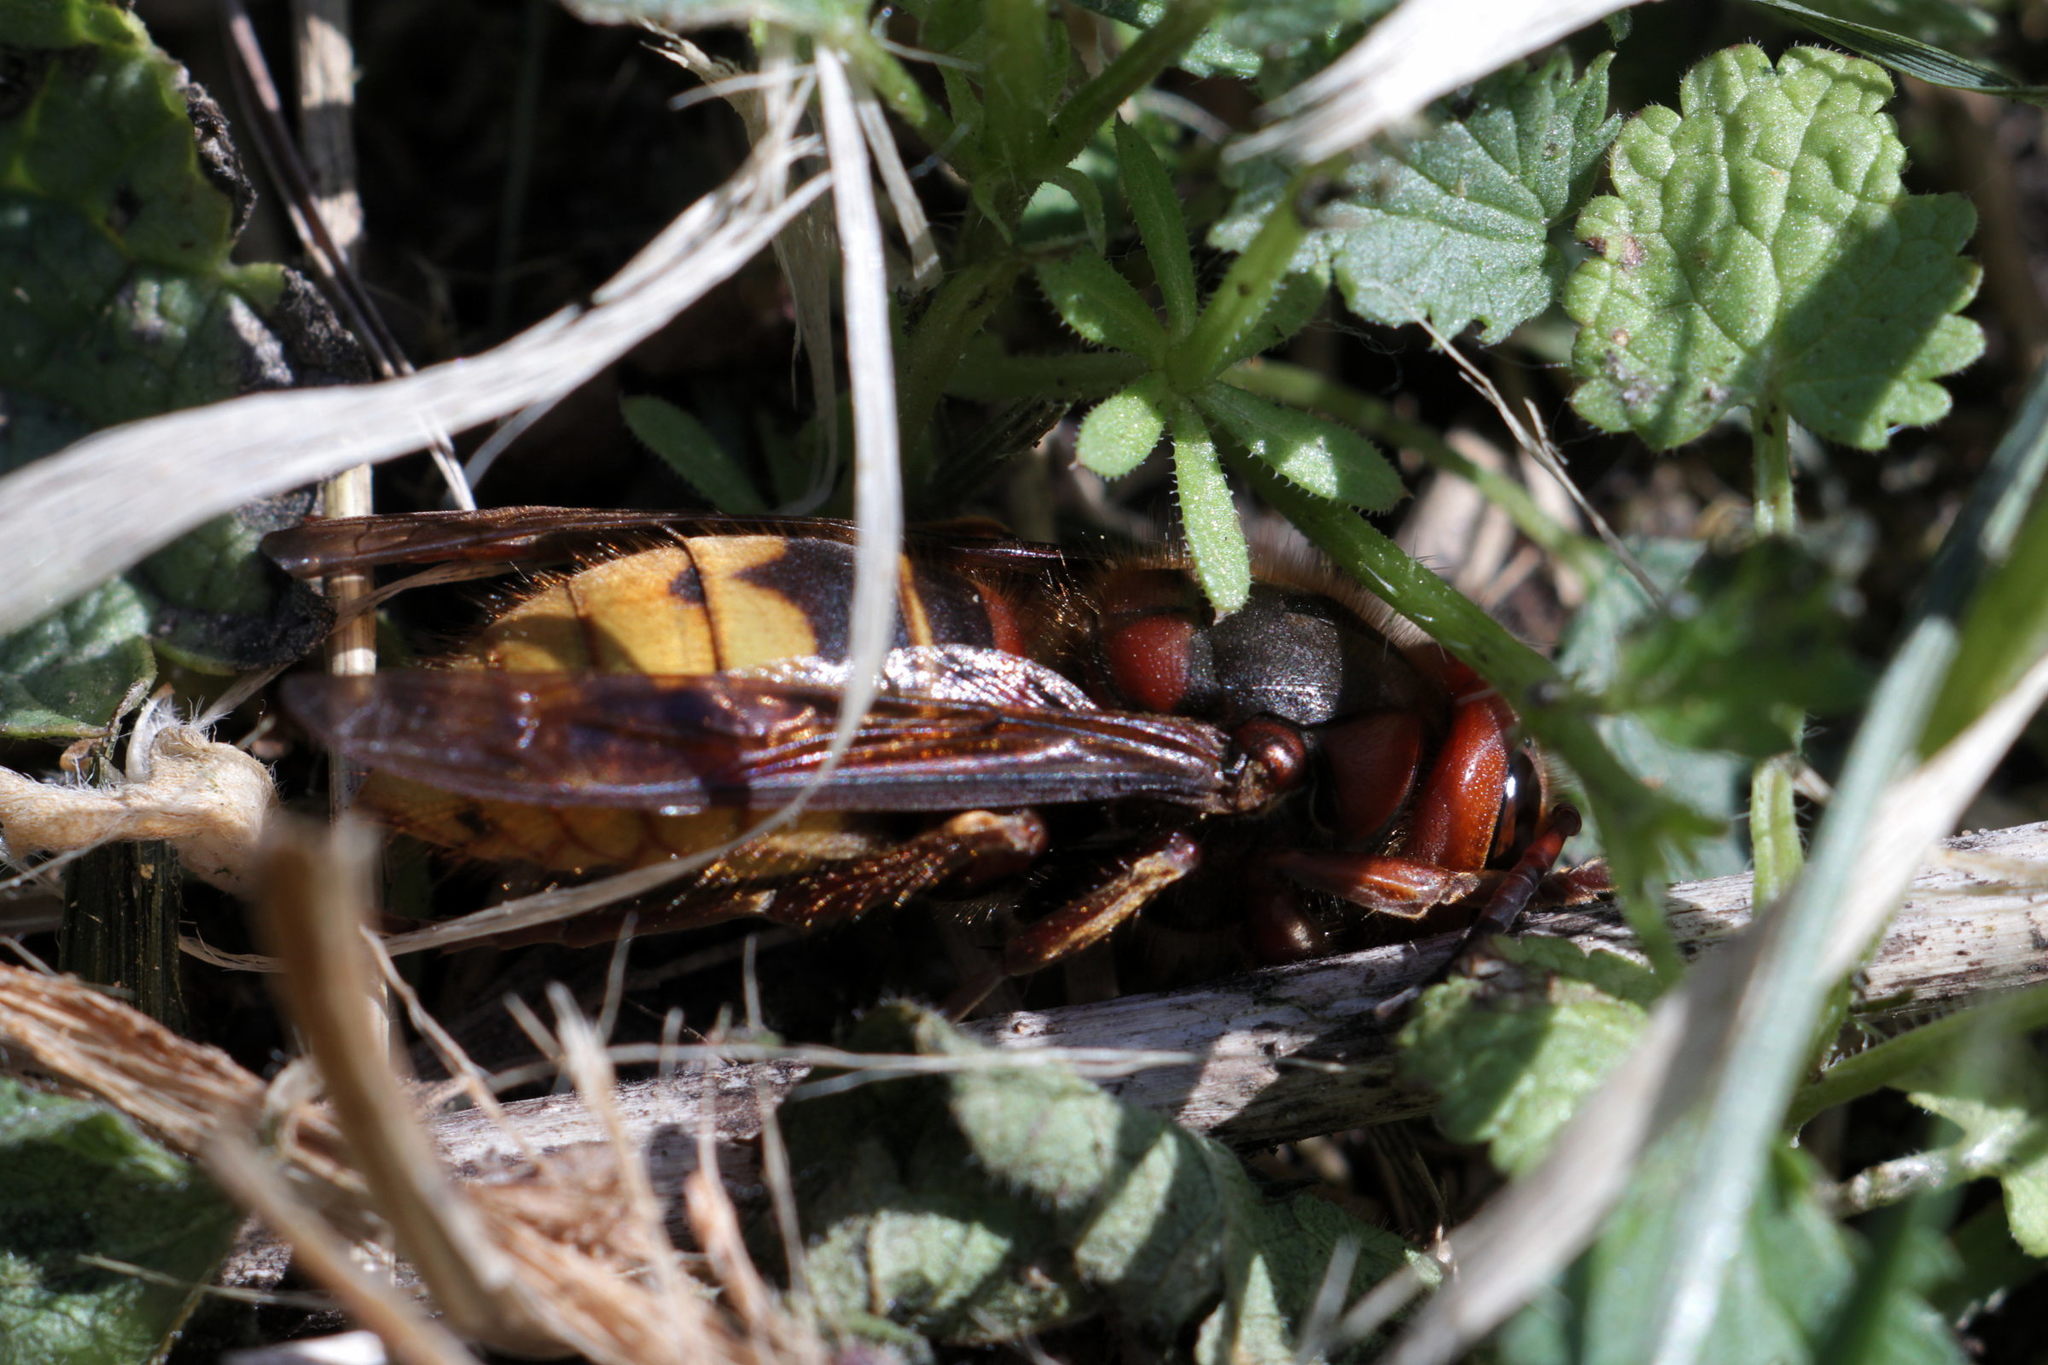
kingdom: Animalia
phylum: Arthropoda
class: Insecta
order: Hymenoptera
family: Vespidae
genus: Vespa
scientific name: Vespa crabro
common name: Hornet
